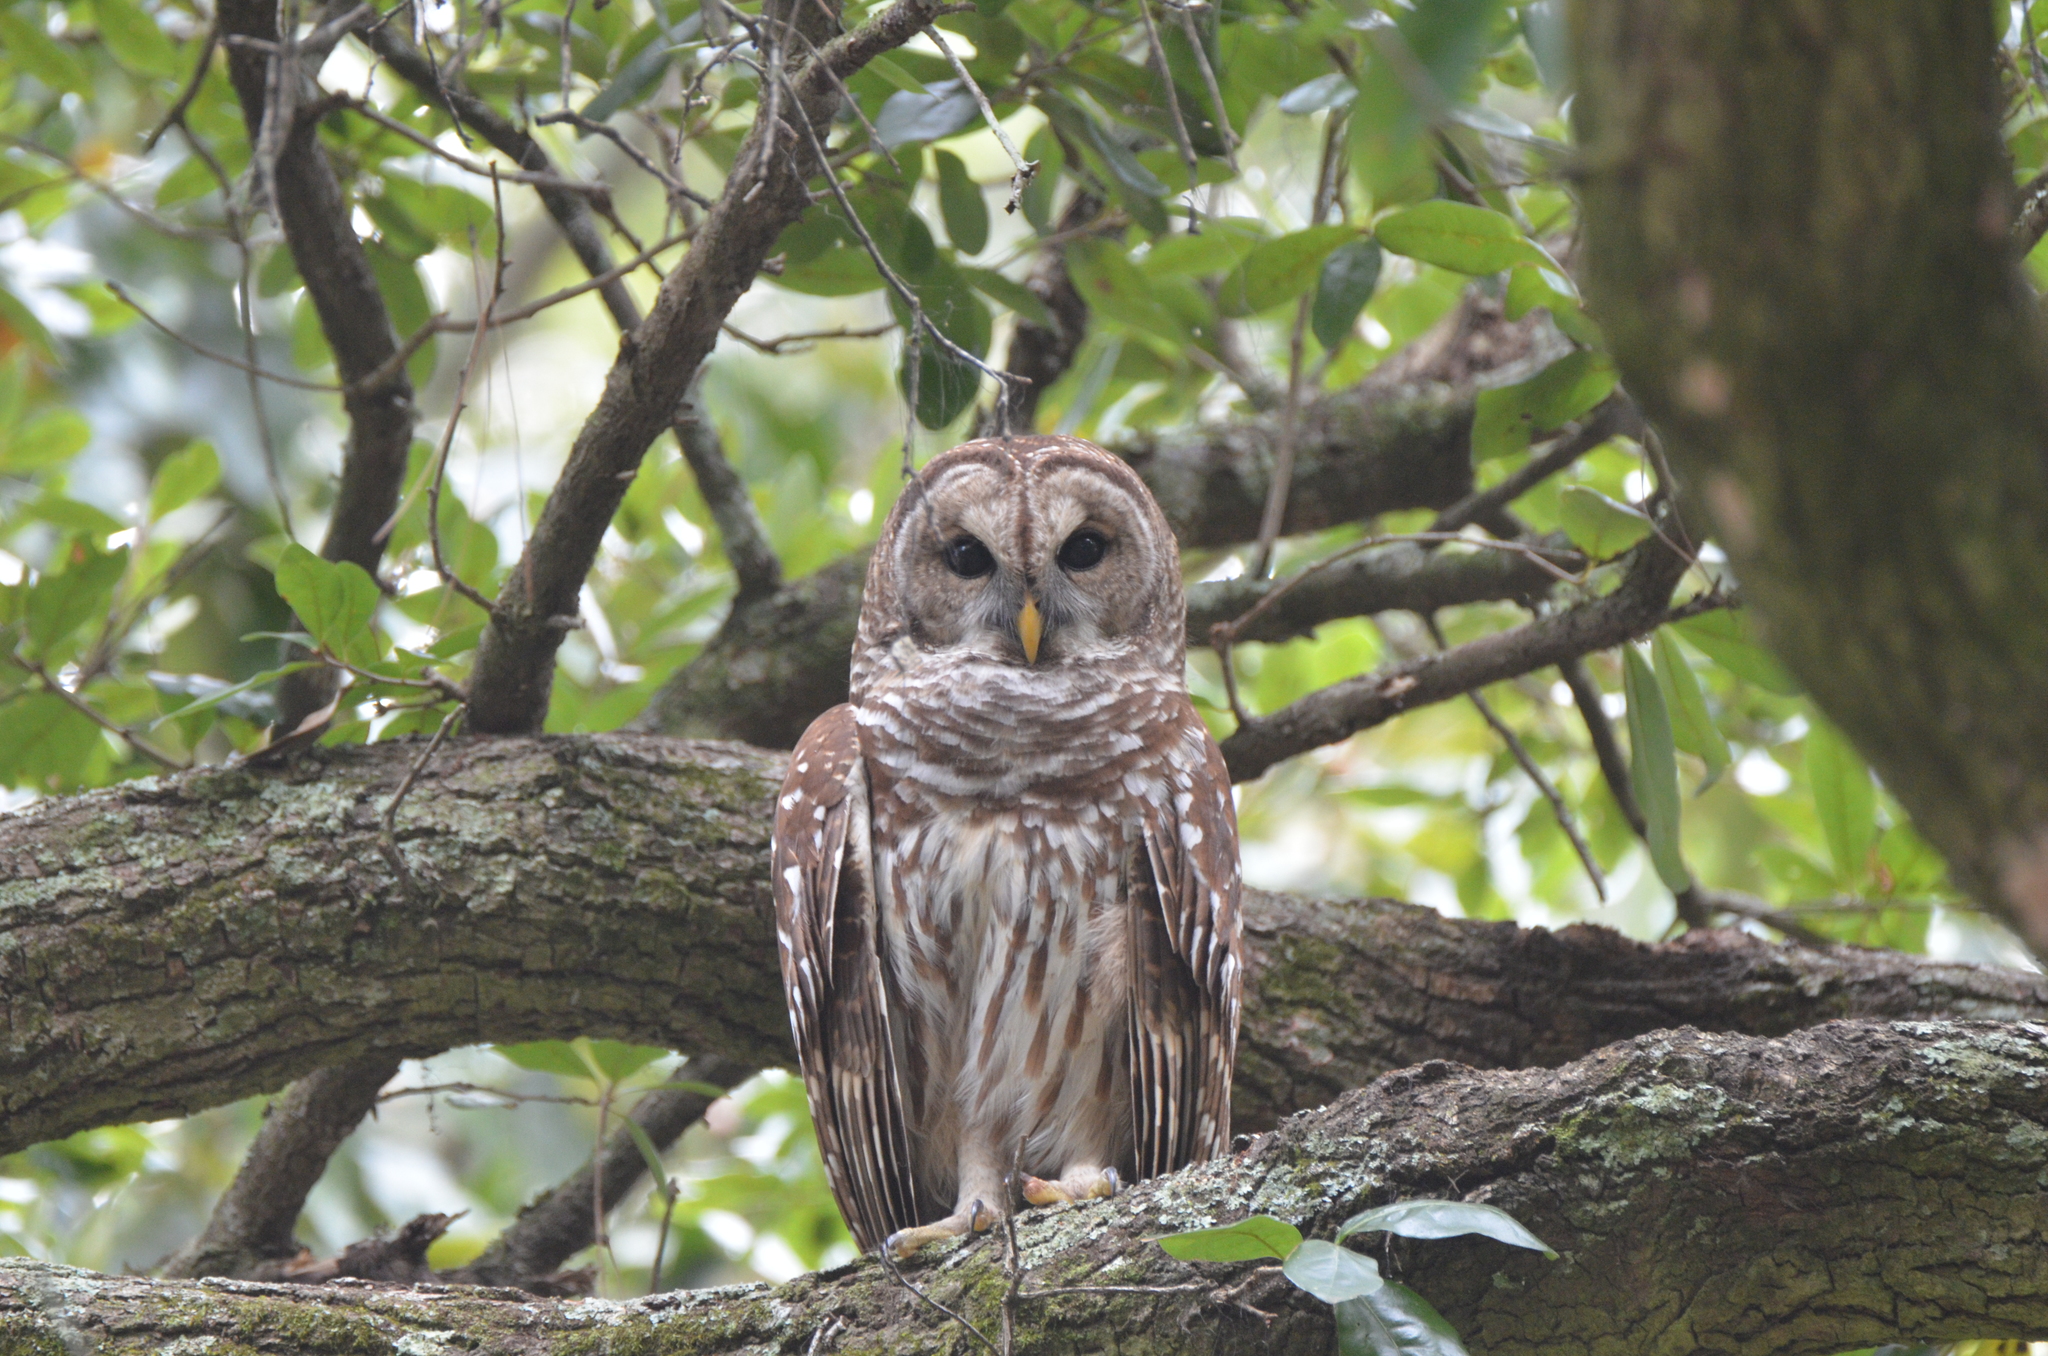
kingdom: Animalia
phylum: Chordata
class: Aves
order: Strigiformes
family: Strigidae
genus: Strix
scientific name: Strix varia
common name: Barred owl
